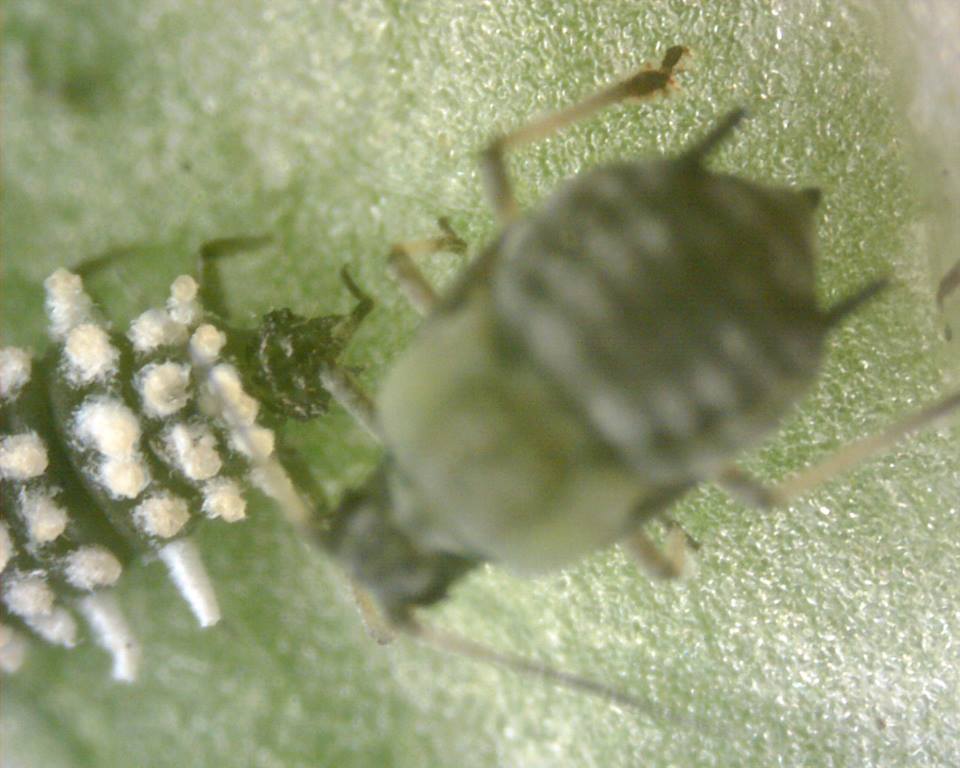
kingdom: Animalia
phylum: Arthropoda
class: Insecta
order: Coleoptera
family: Coccinellidae
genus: Scymnus
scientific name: Scymnus quadrillum
